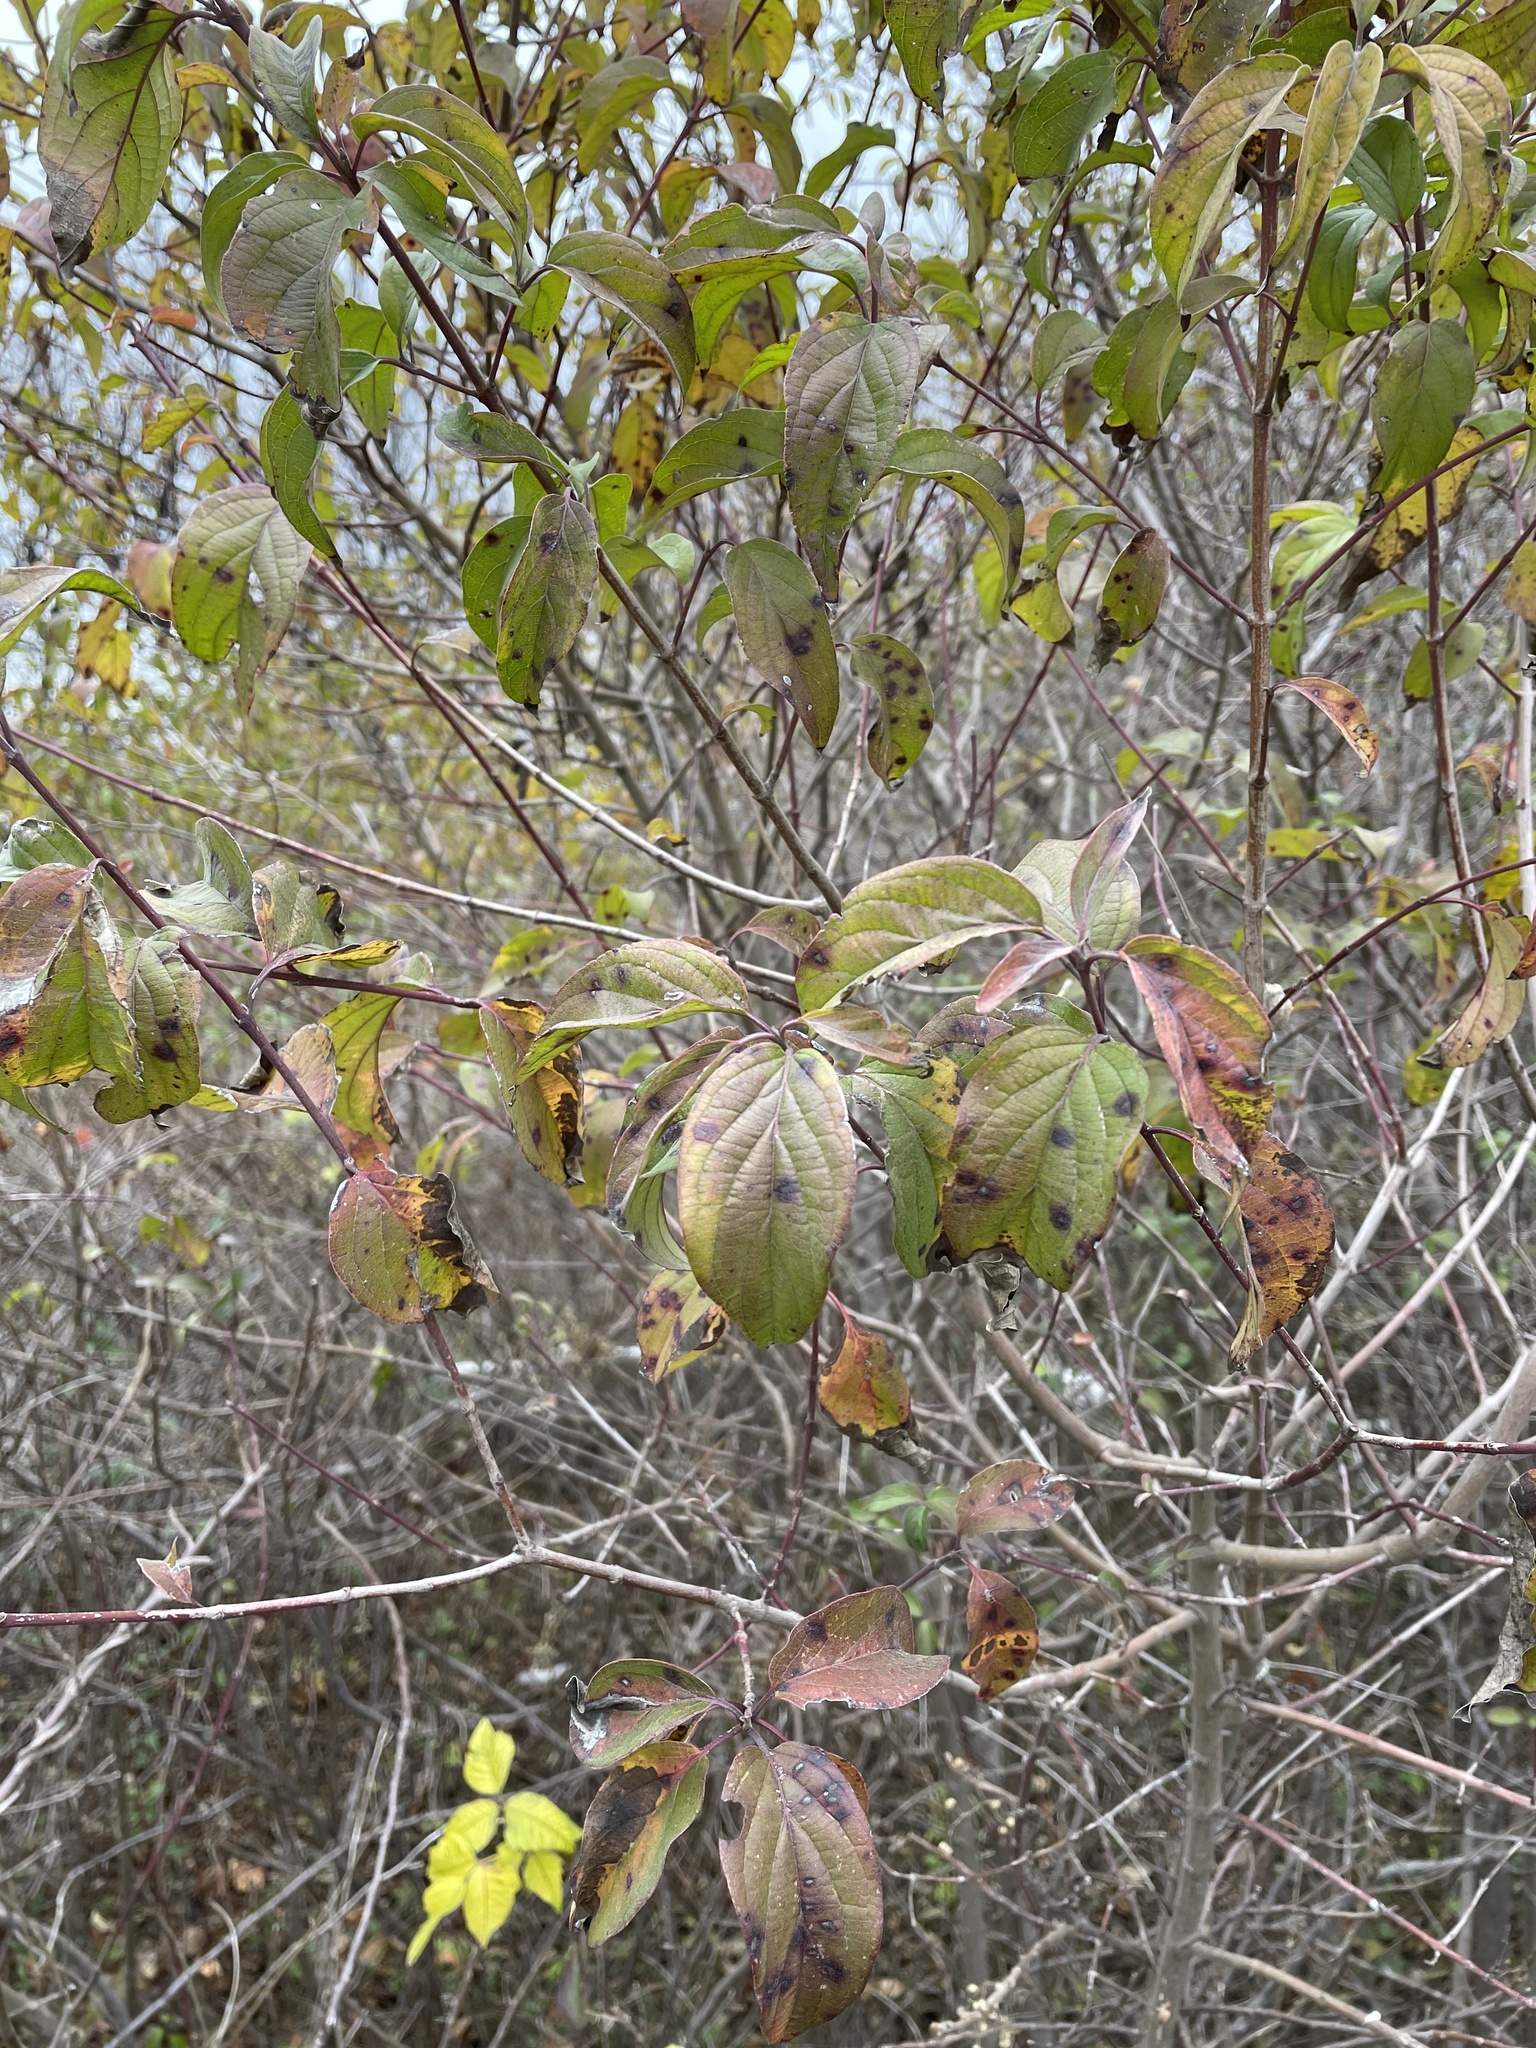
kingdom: Plantae
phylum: Tracheophyta
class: Magnoliopsida
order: Cornales
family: Cornaceae
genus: Cornus
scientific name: Cornus drummondii
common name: Rough-leaf dogwood
